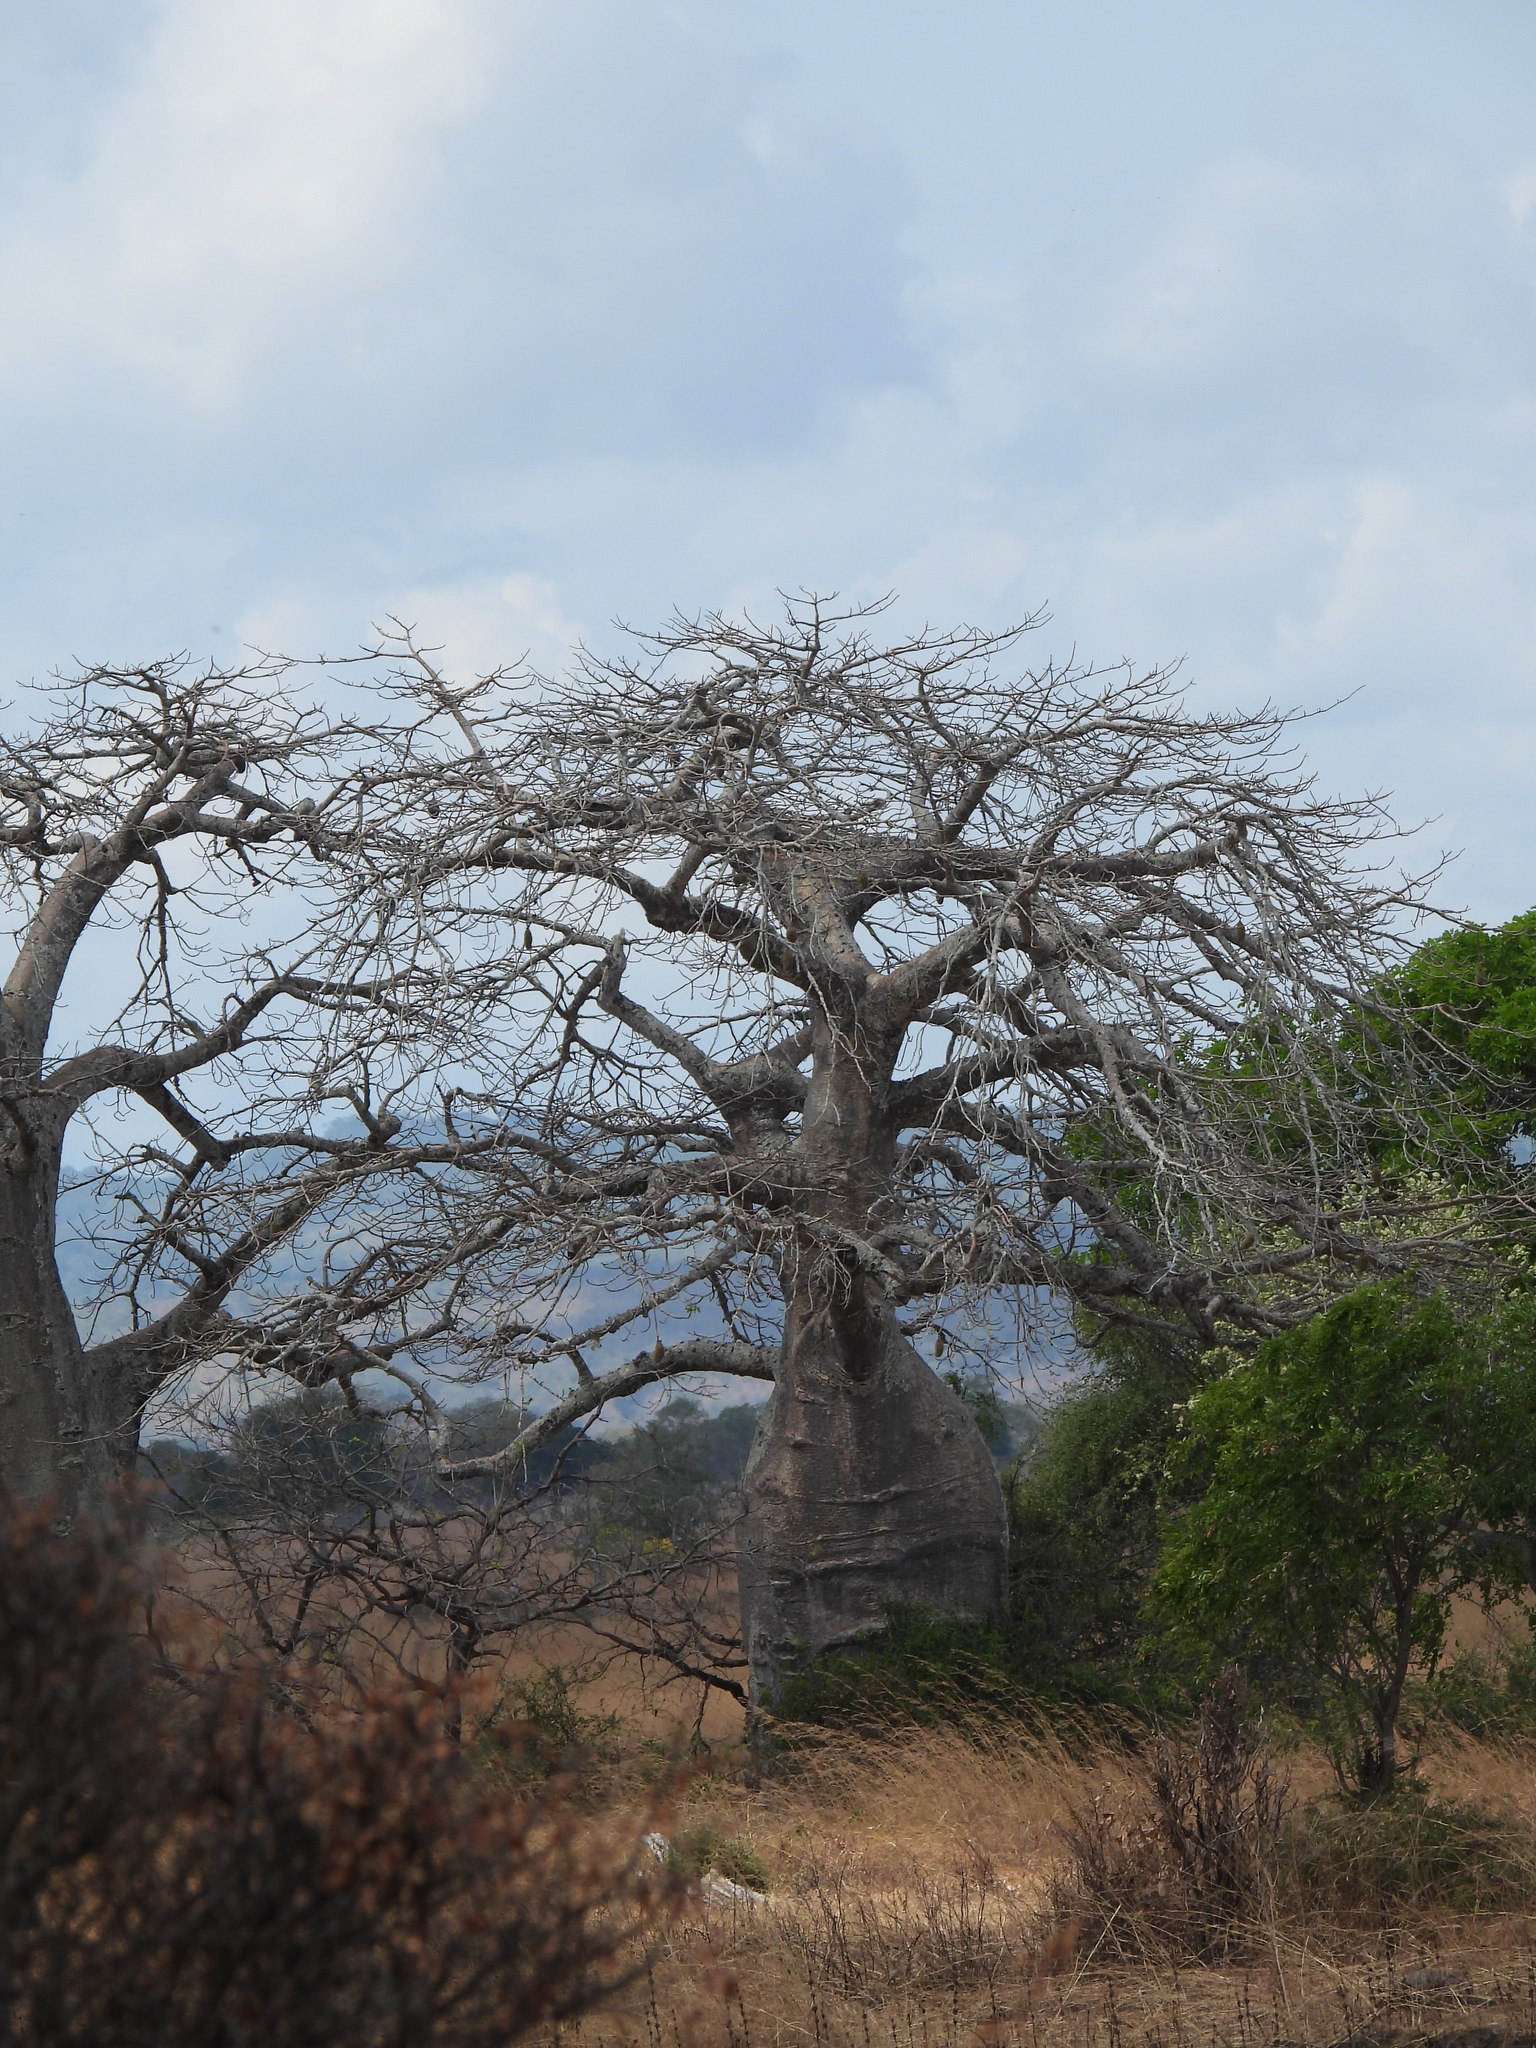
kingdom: Plantae
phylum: Tracheophyta
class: Magnoliopsida
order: Malvales
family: Malvaceae
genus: Adansonia
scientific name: Adansonia digitata
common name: Dead-rat-tree
